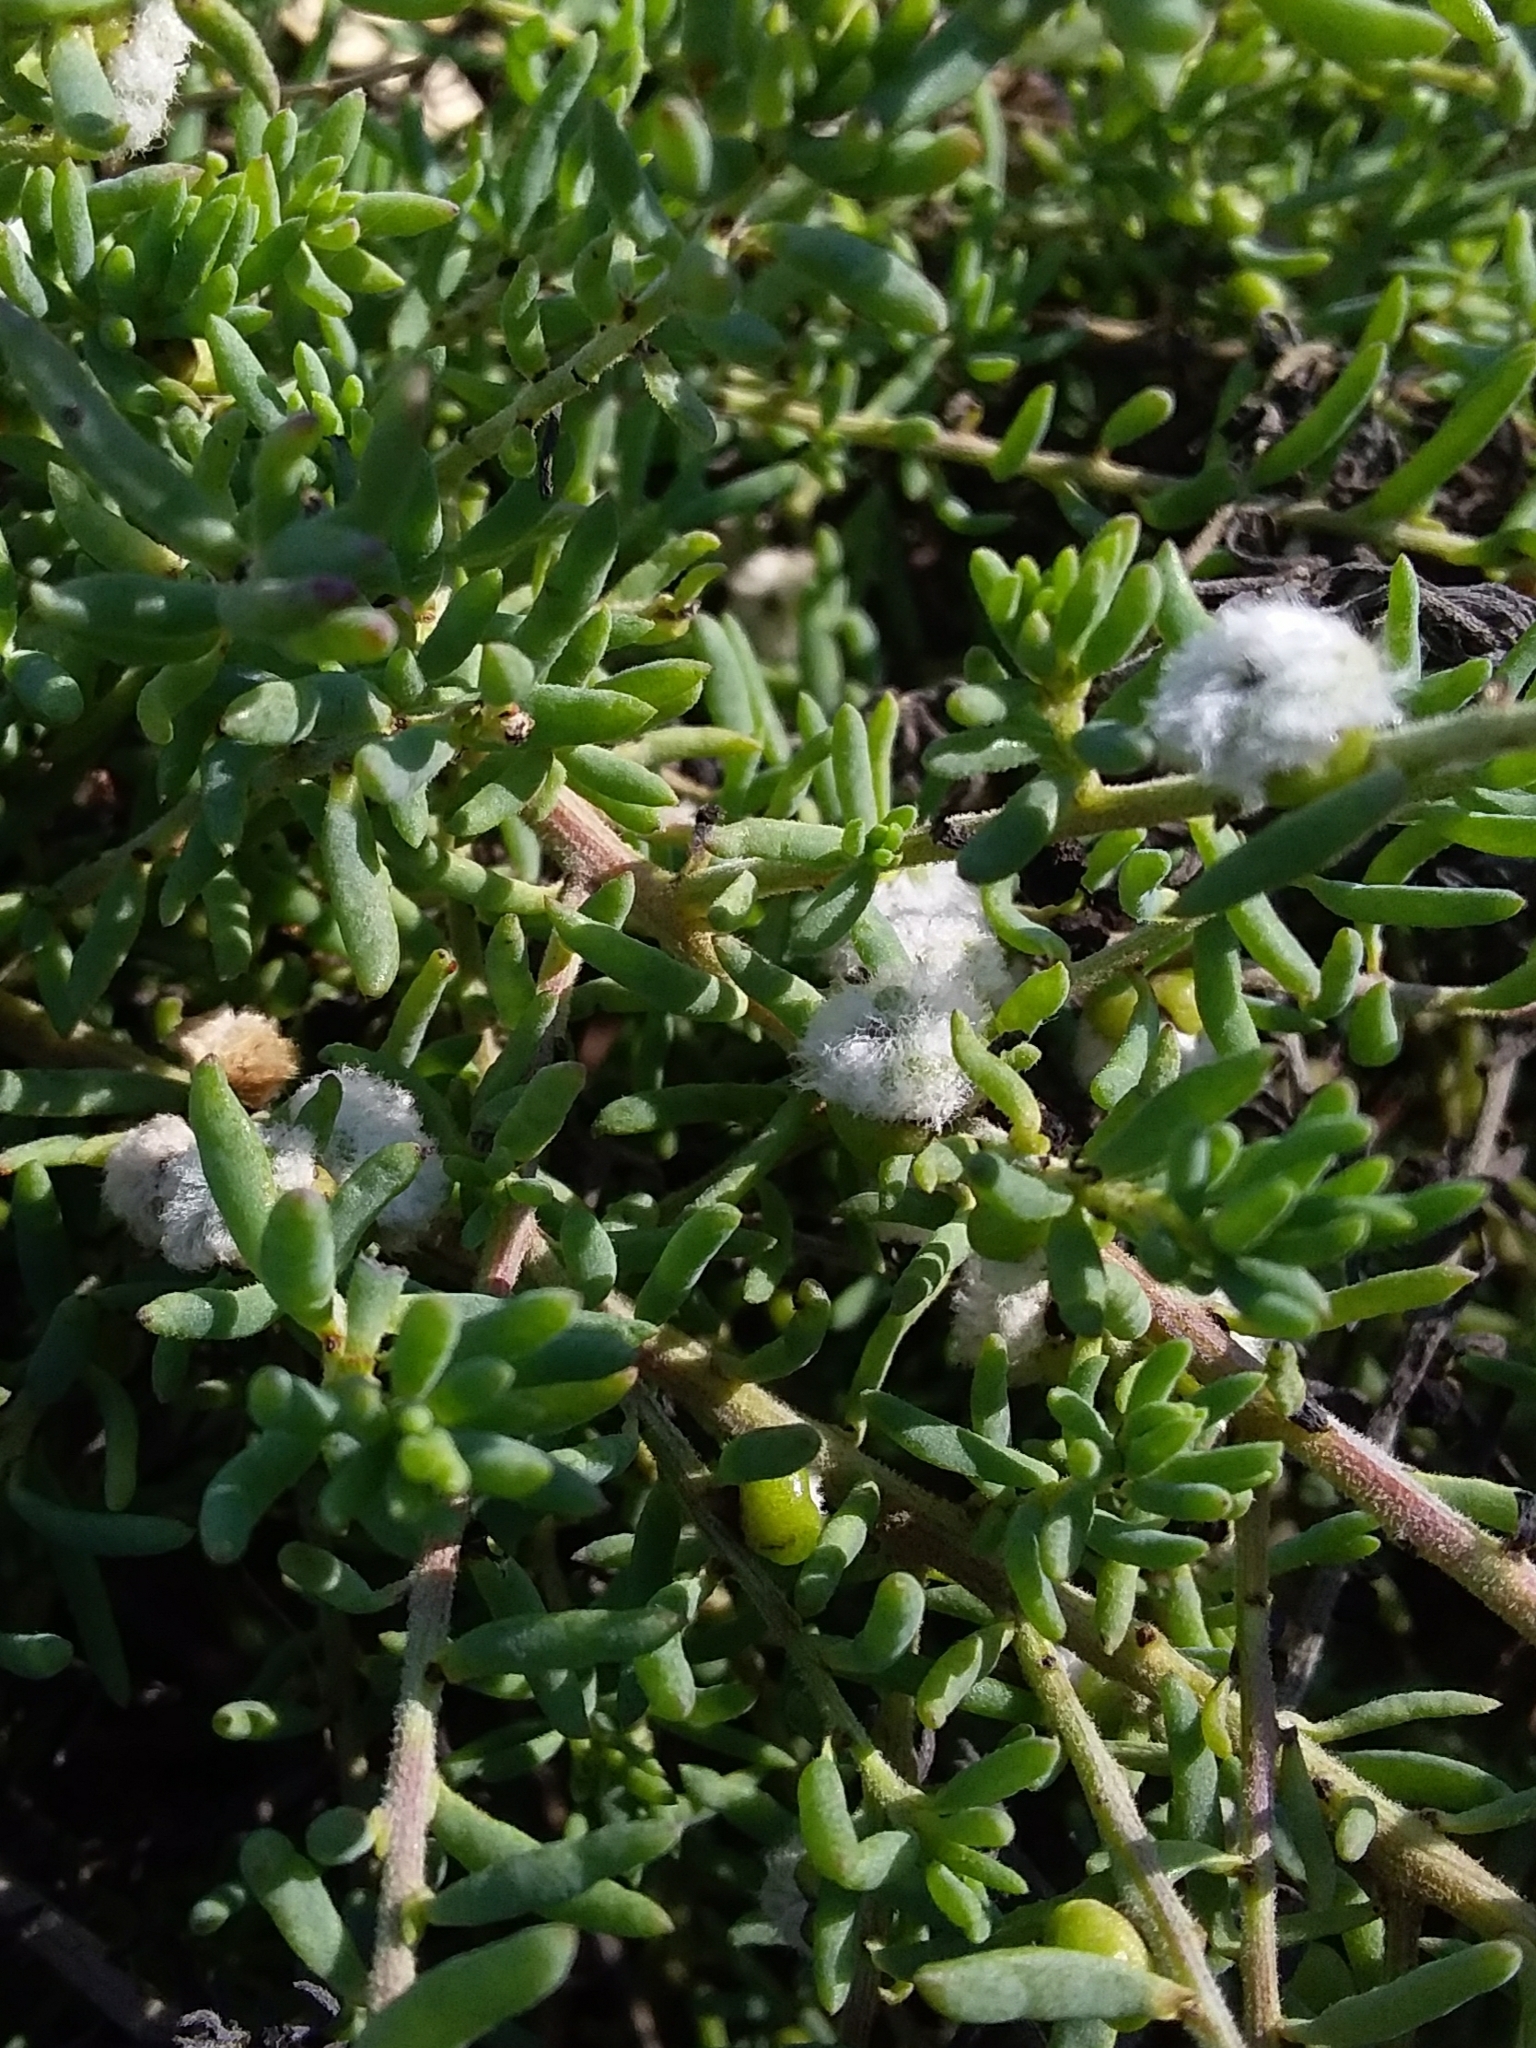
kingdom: Animalia
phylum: Arthropoda
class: Insecta
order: Diptera
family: Cecidomyiidae
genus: Asphondylia
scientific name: Asphondylia tonsura
